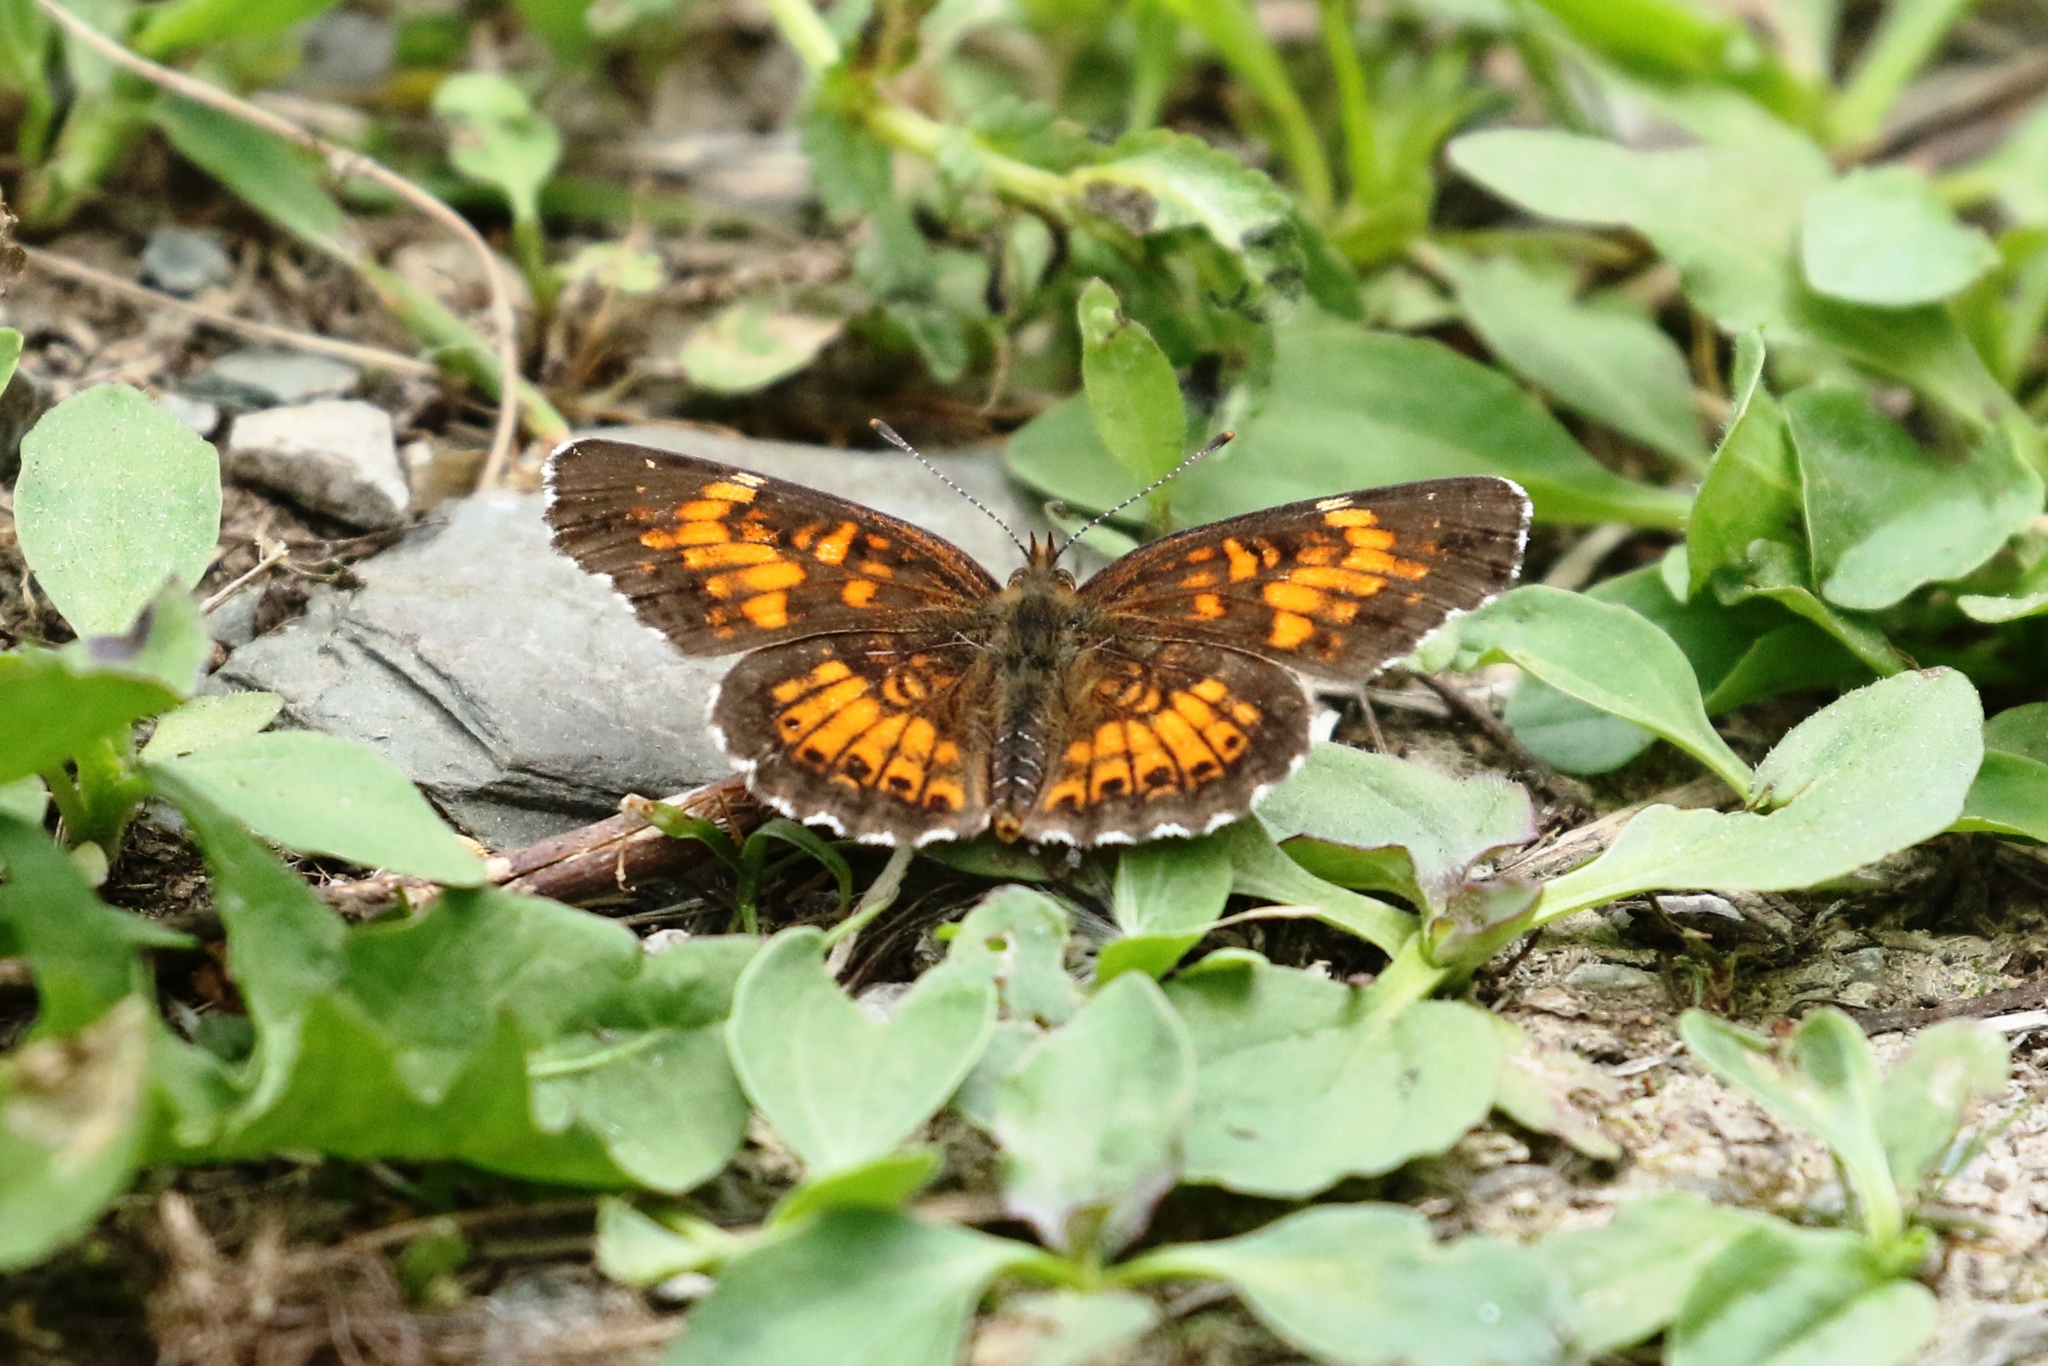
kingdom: Animalia
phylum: Arthropoda
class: Insecta
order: Lepidoptera
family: Nymphalidae
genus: Chlosyne
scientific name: Chlosyne harrisii
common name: Harris's checkerspot
